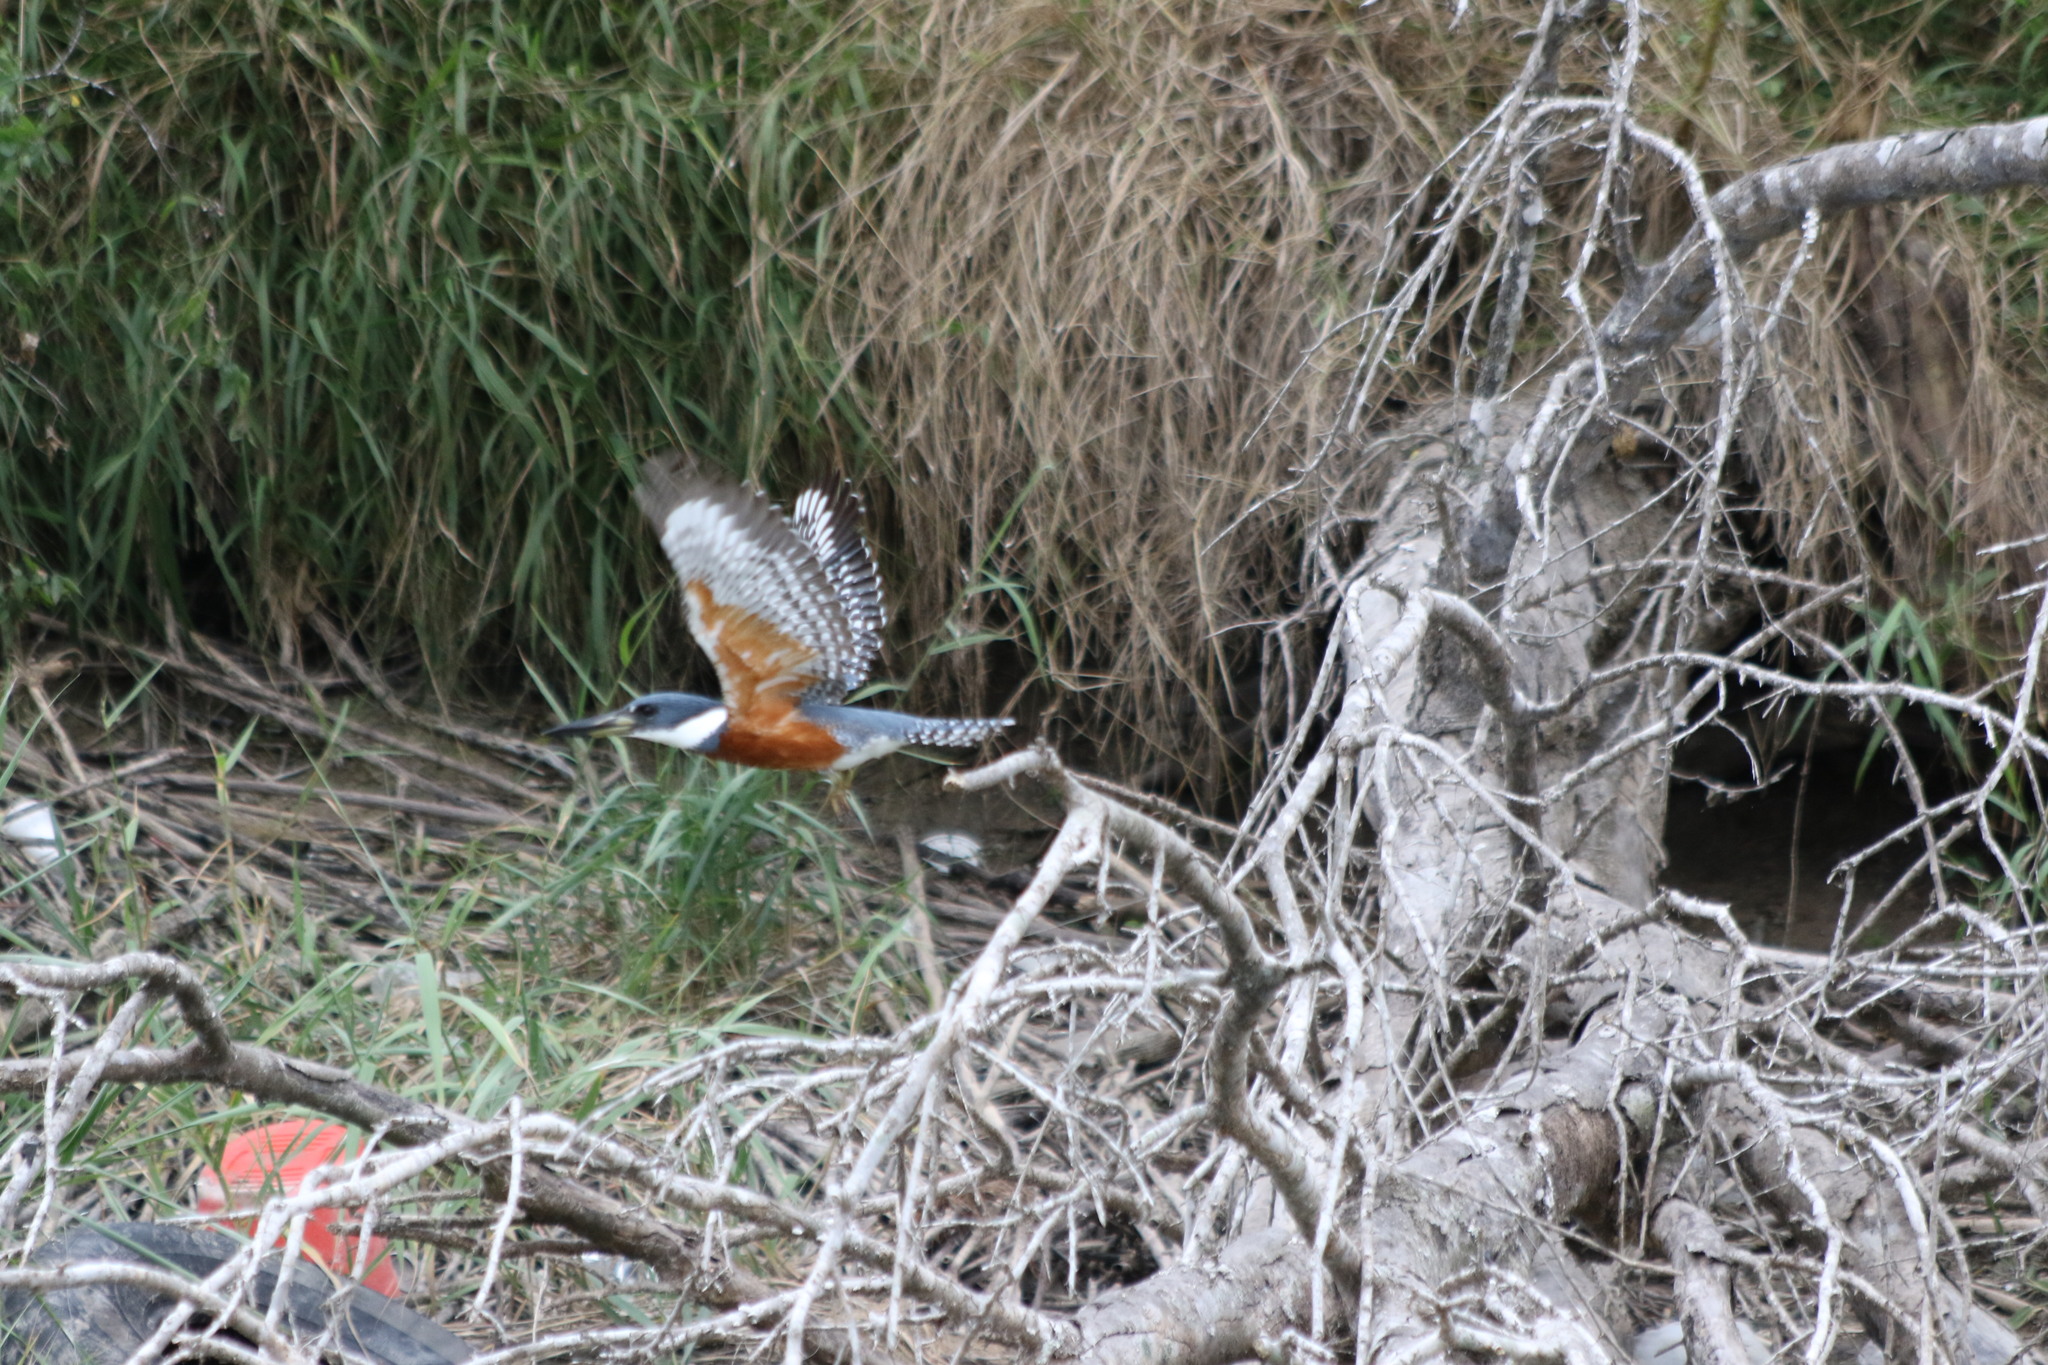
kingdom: Animalia
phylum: Chordata
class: Aves
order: Coraciiformes
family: Alcedinidae
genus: Megaceryle
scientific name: Megaceryle torquata
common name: Ringed kingfisher
